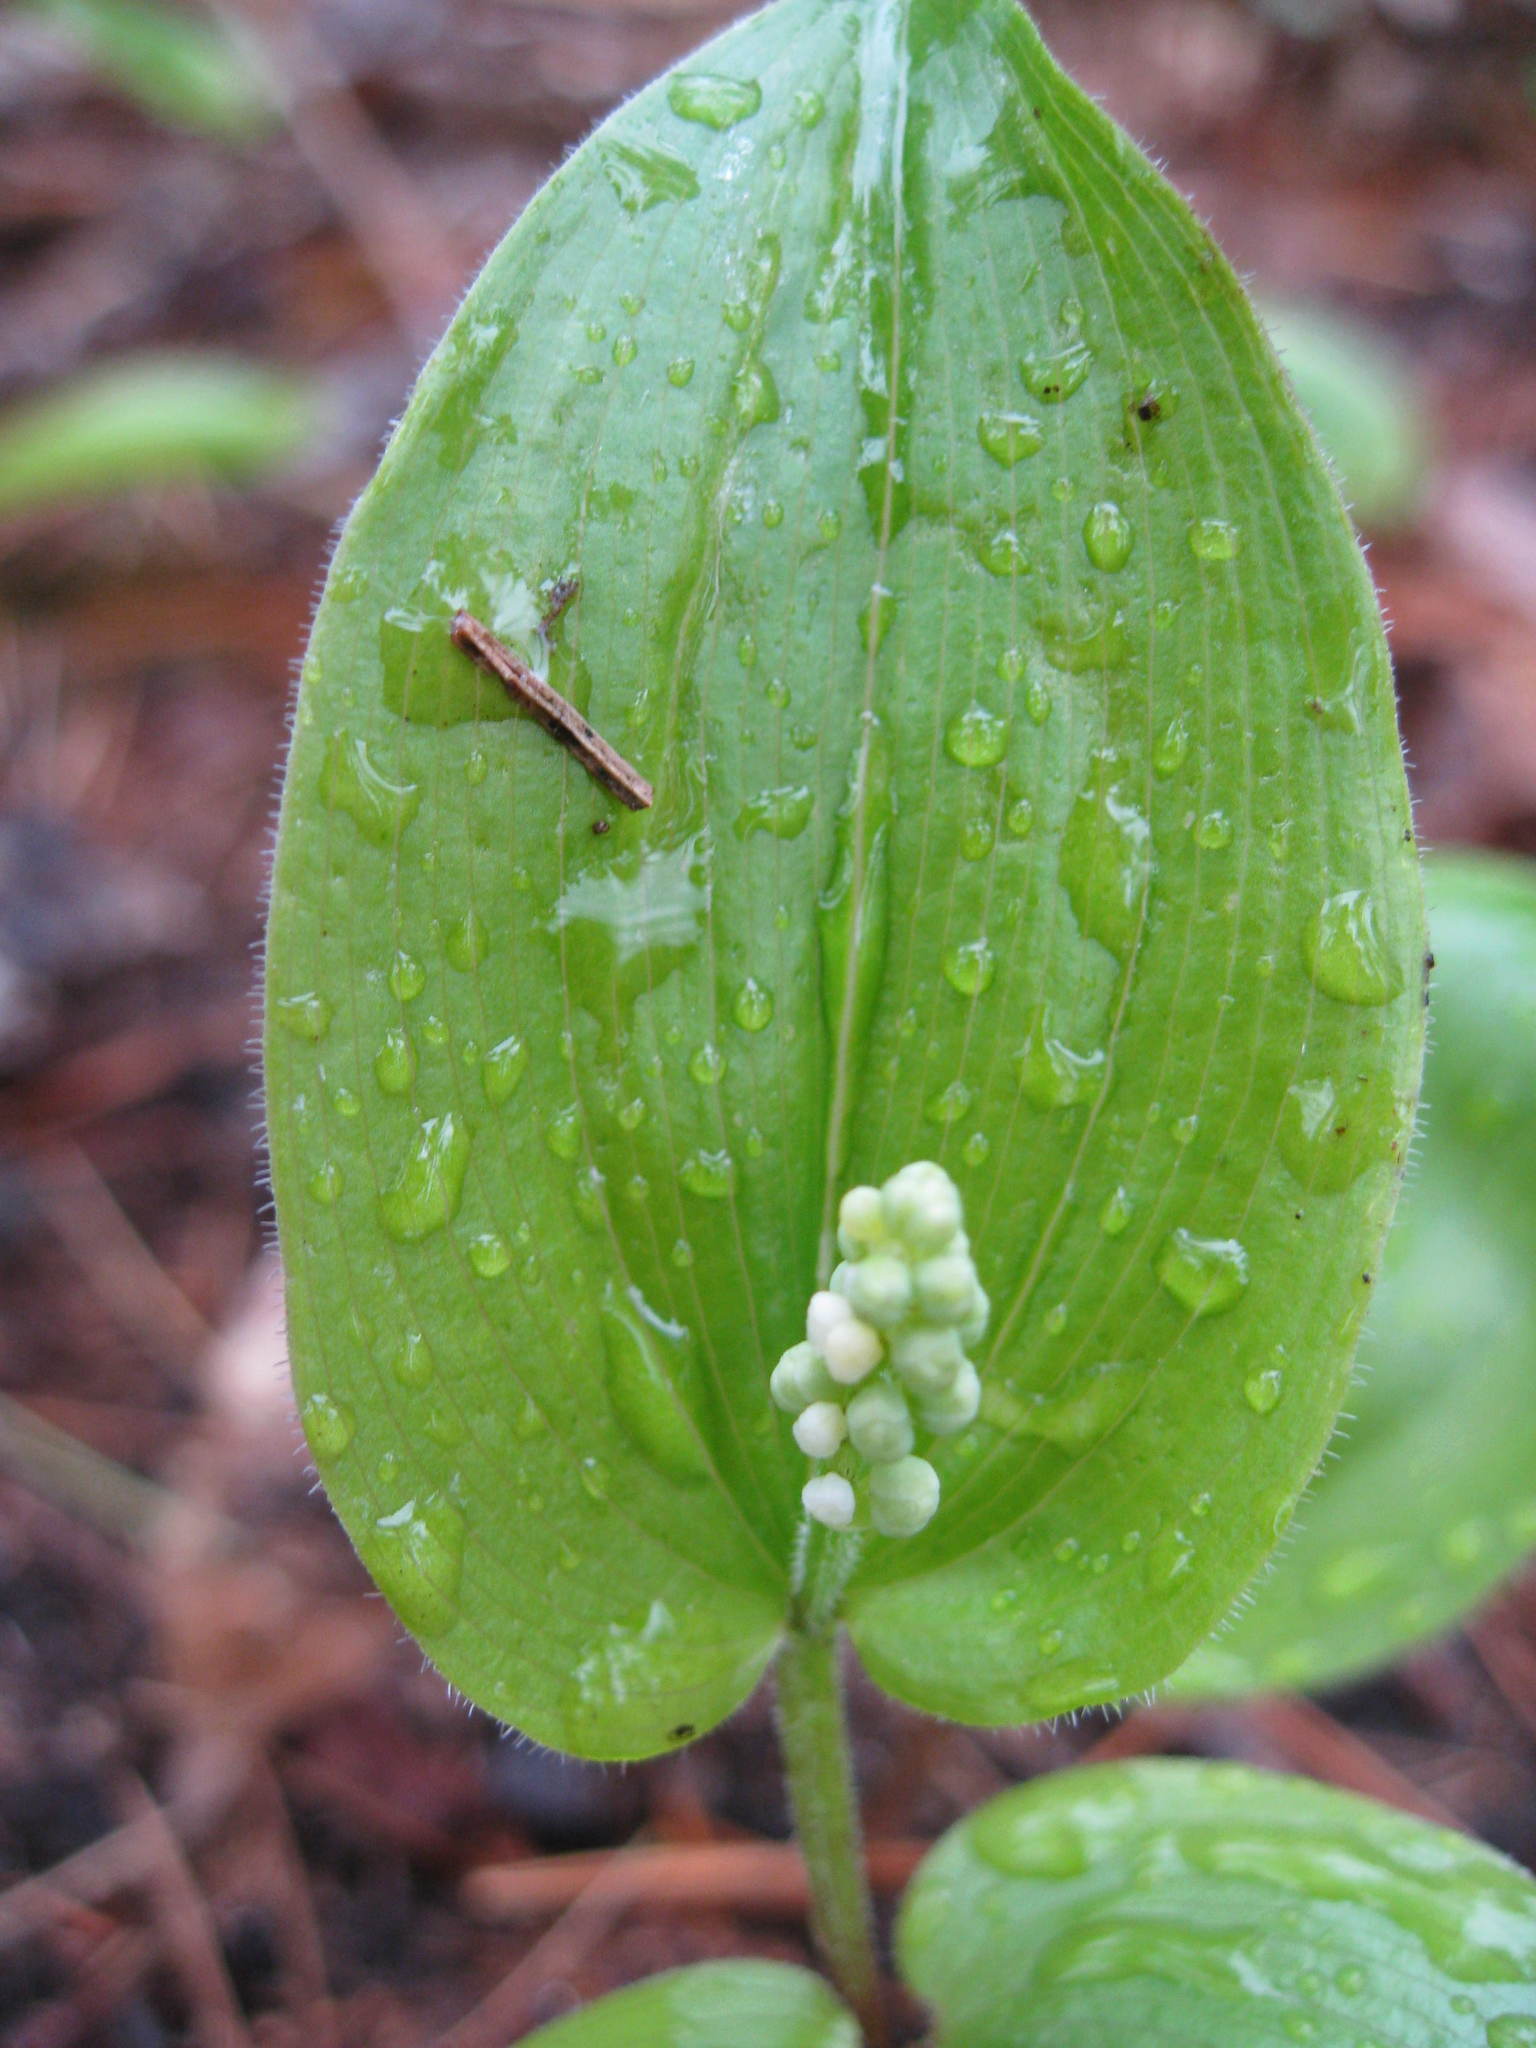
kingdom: Plantae
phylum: Tracheophyta
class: Liliopsida
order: Asparagales
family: Asparagaceae
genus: Maianthemum
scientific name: Maianthemum canadense
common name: False lily-of-the-valley
